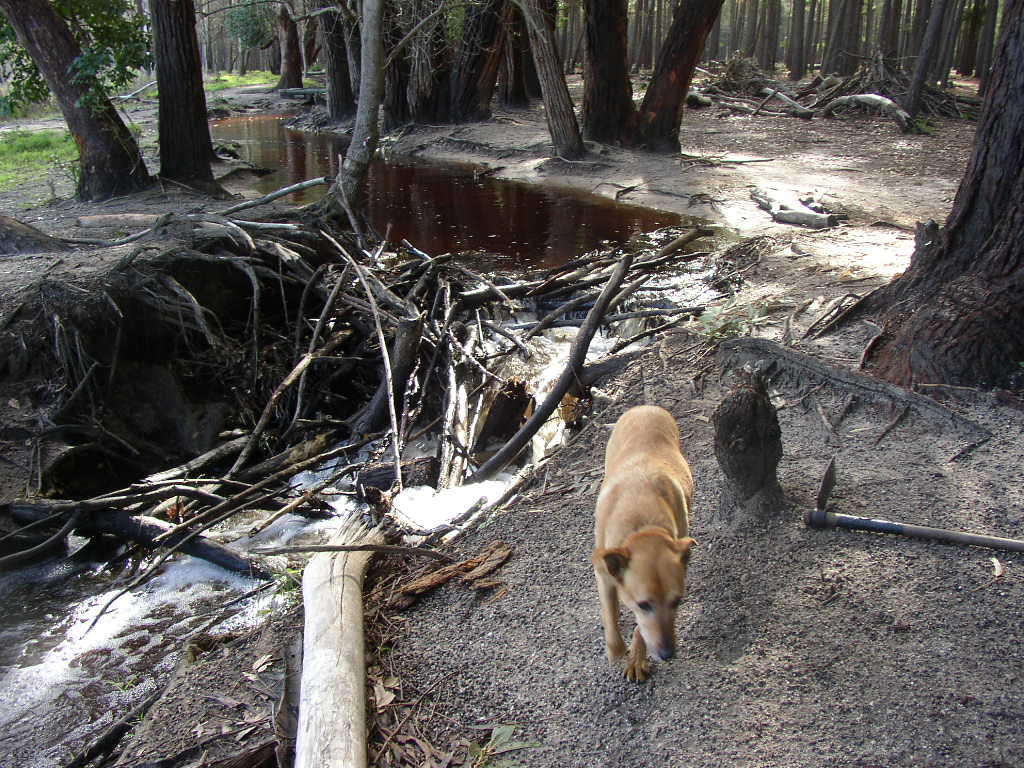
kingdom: Plantae
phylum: Tracheophyta
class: Magnoliopsida
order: Myrtales
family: Myrtaceae
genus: Eucalyptus
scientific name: Eucalyptus botryoides
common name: Bangalay
